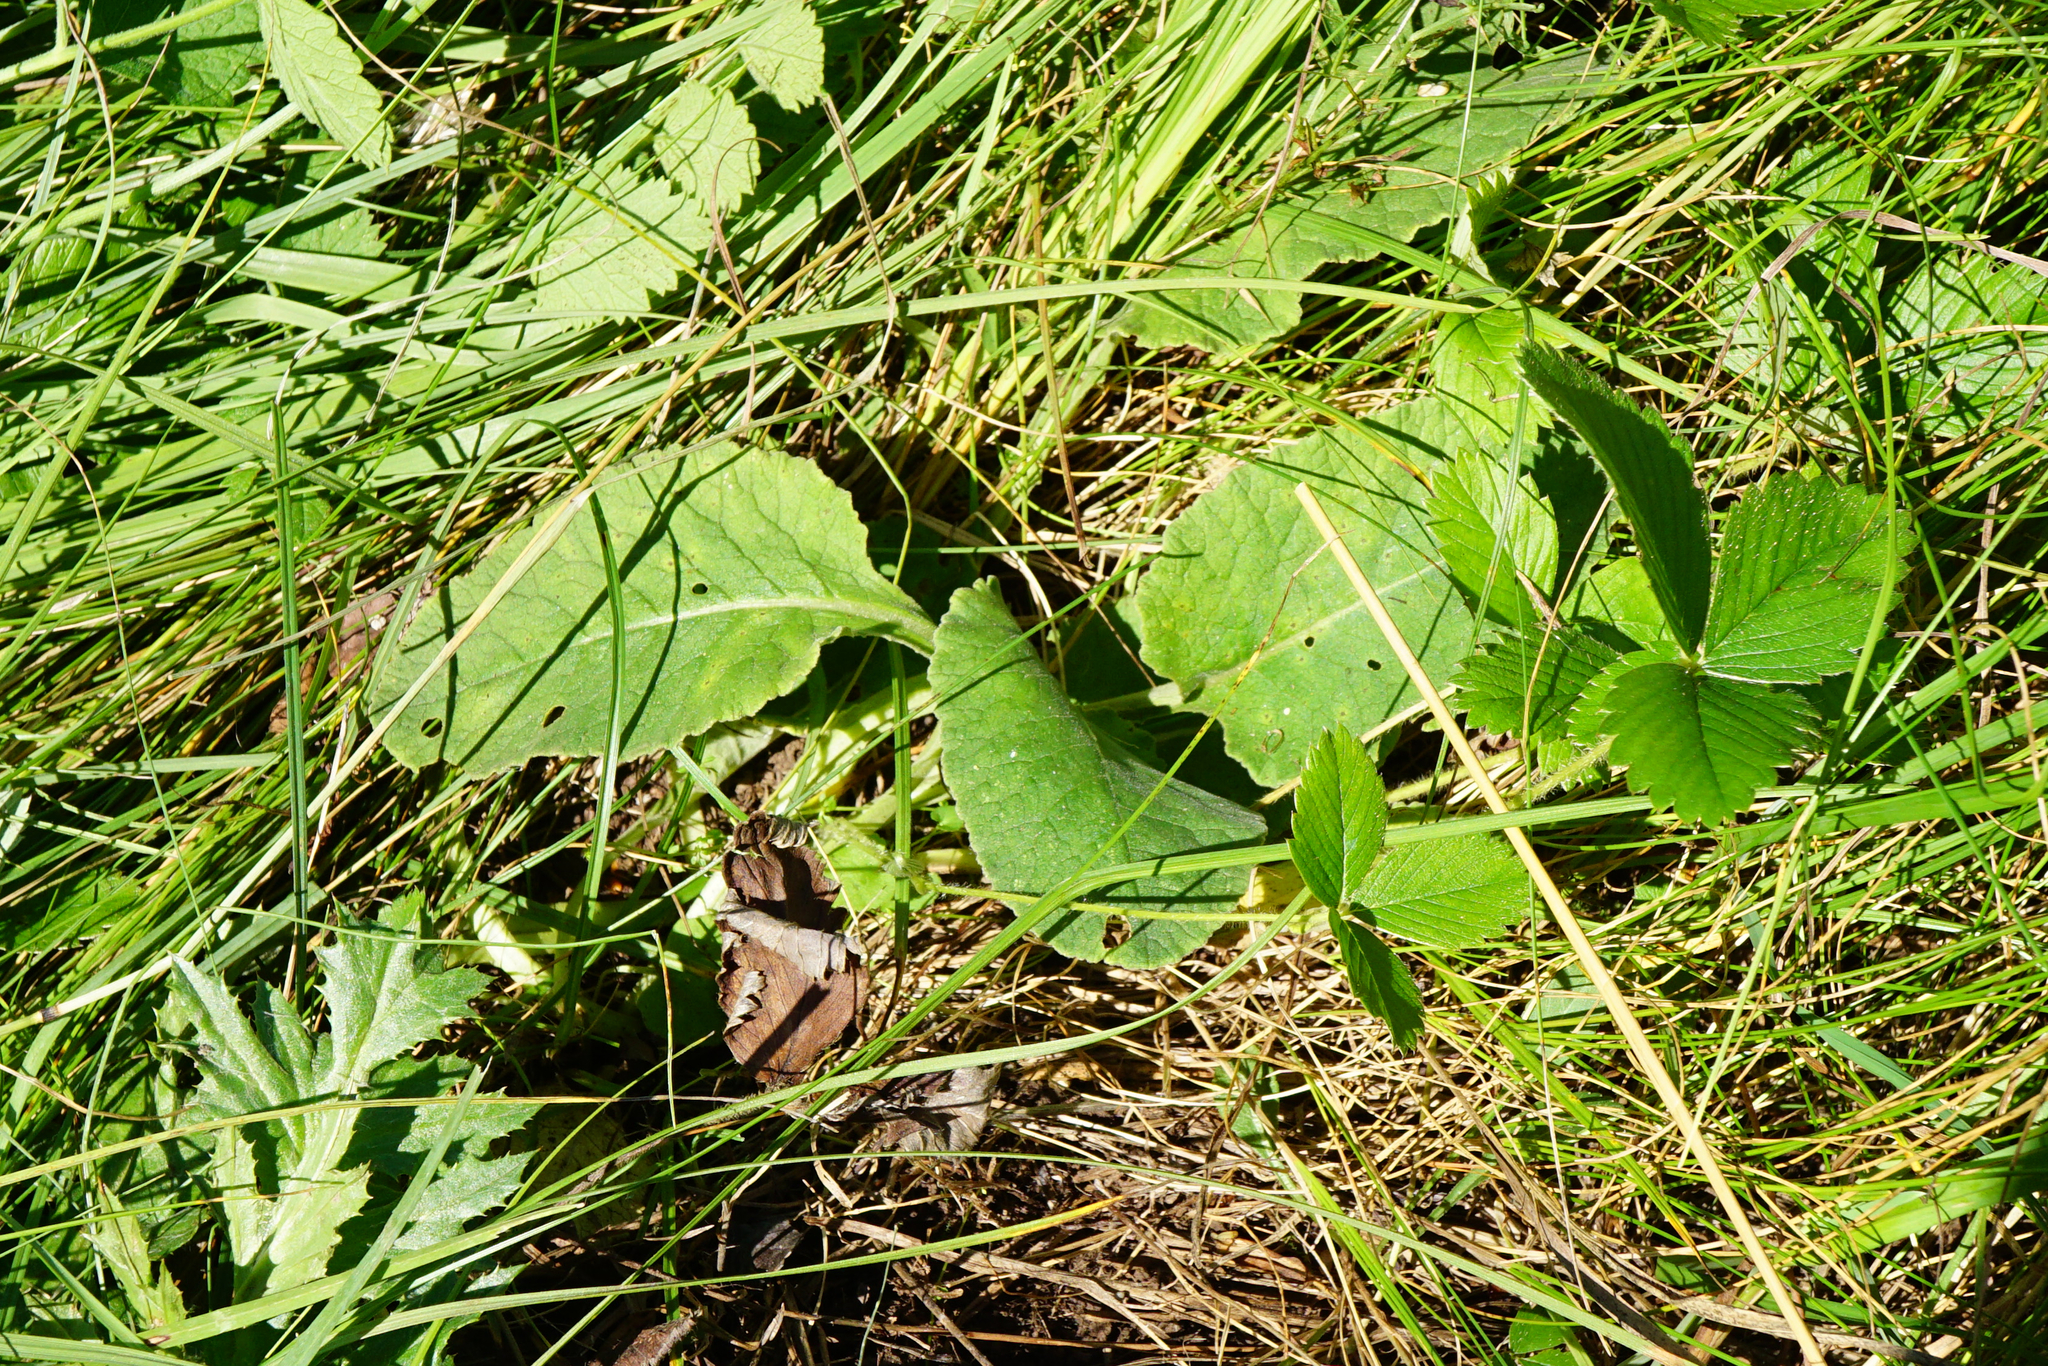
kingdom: Plantae
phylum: Tracheophyta
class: Magnoliopsida
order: Ericales
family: Primulaceae
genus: Primula
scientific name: Primula veris
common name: Cowslip
